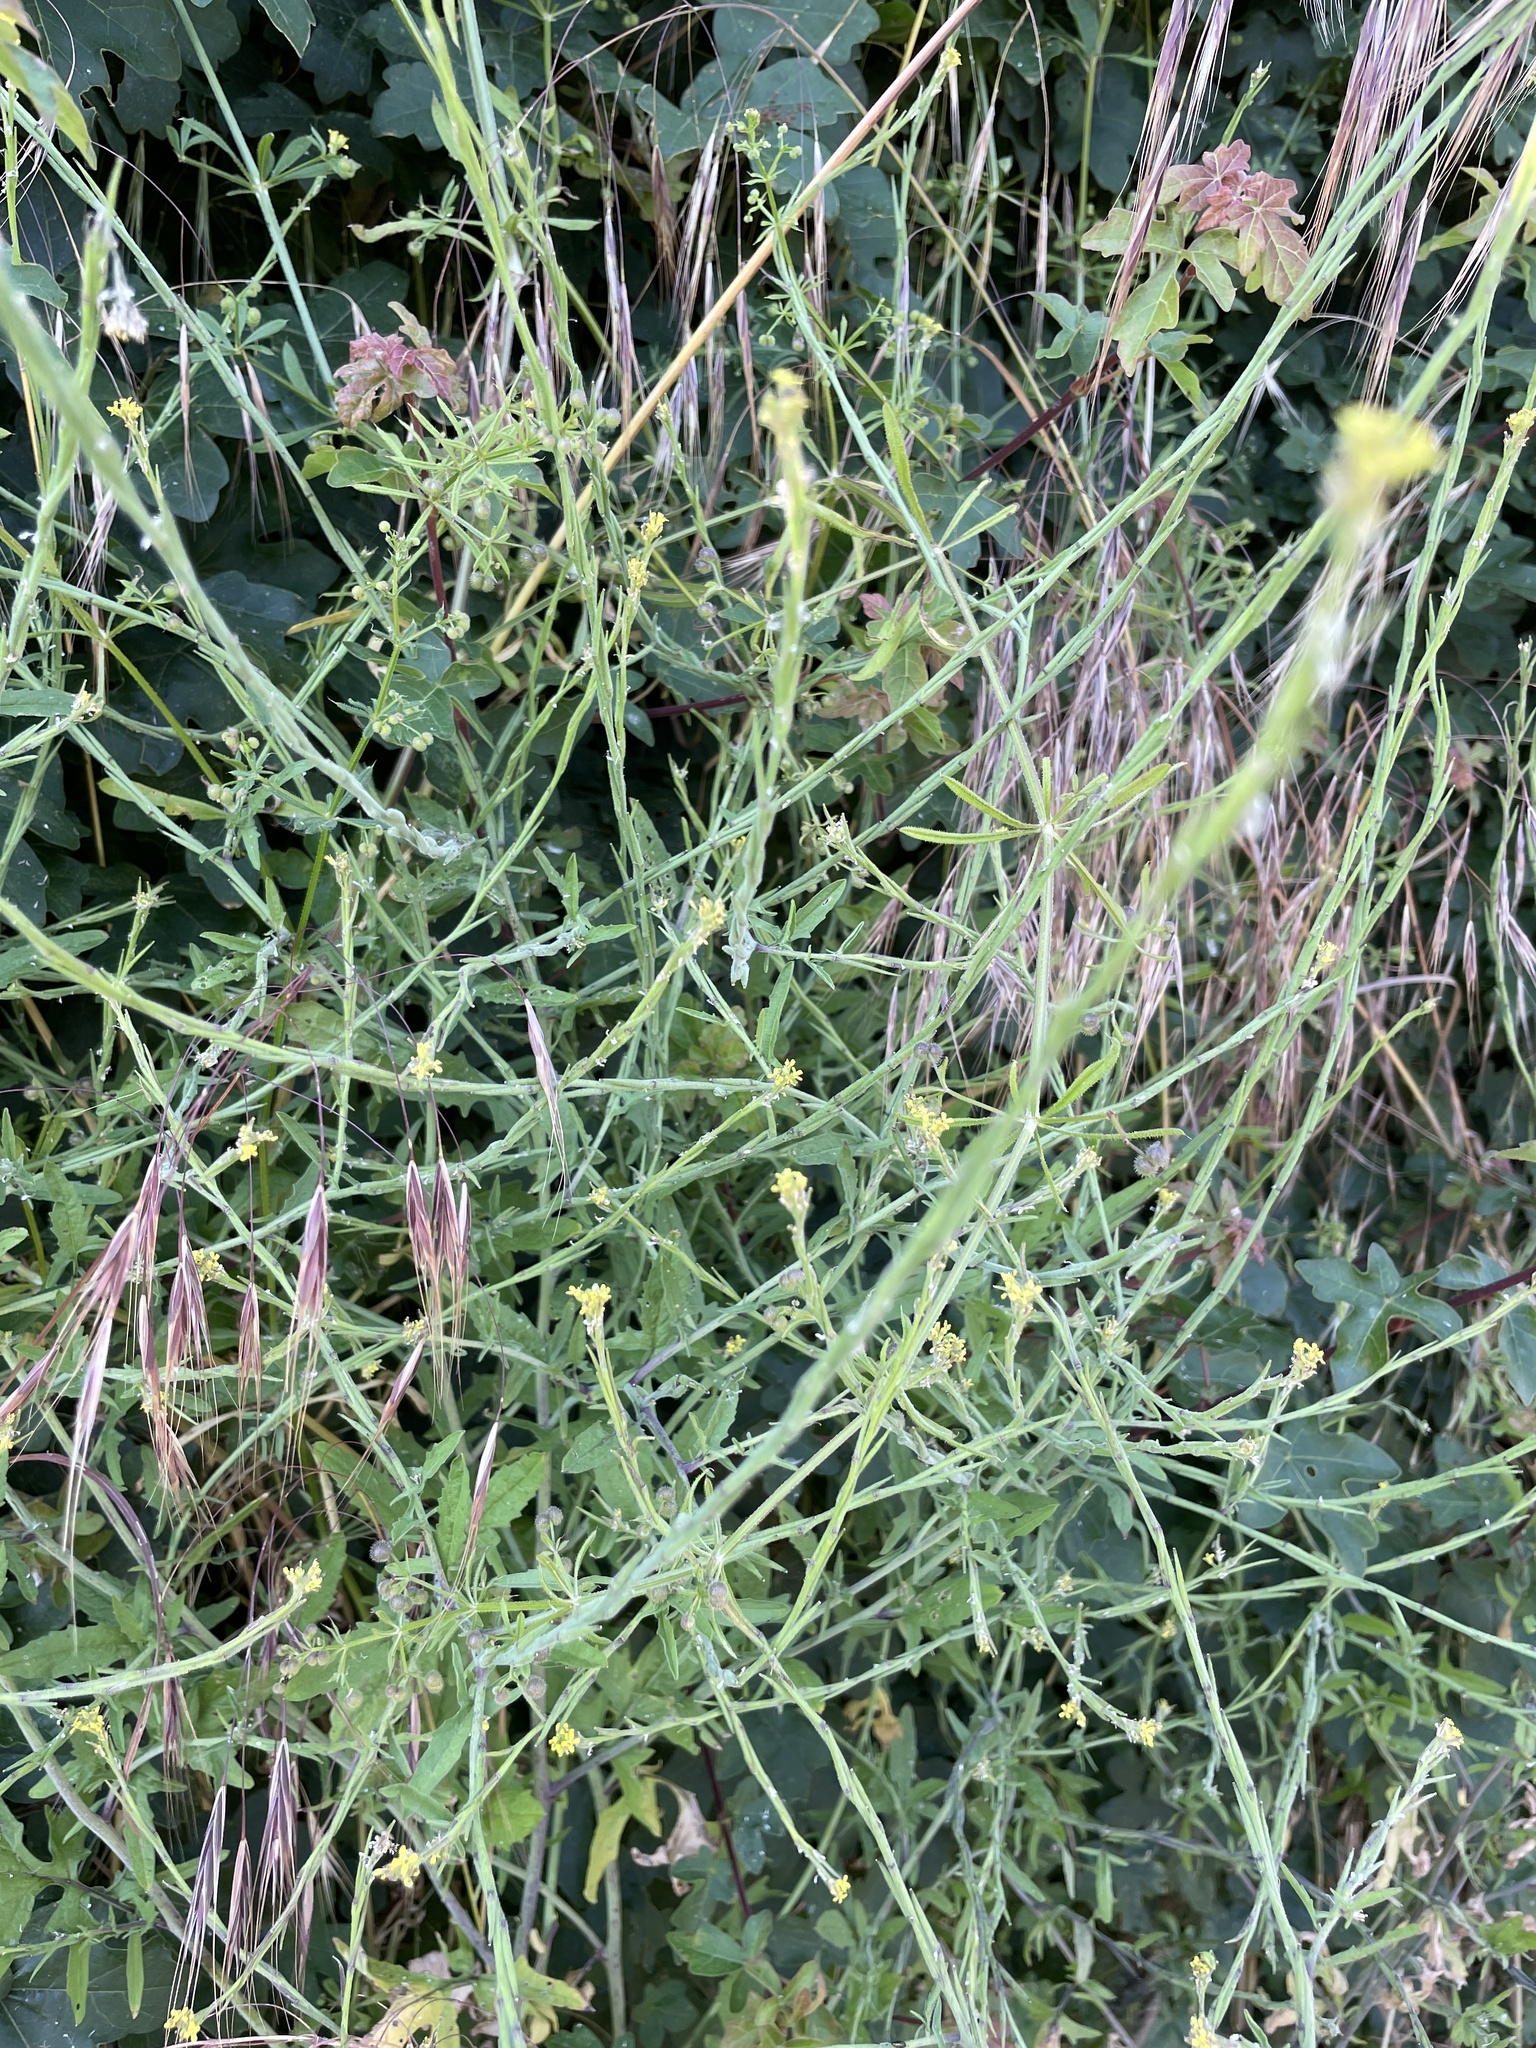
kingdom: Plantae
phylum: Tracheophyta
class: Magnoliopsida
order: Brassicales
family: Brassicaceae
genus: Sisymbrium
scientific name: Sisymbrium officinale
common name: Hedge mustard
